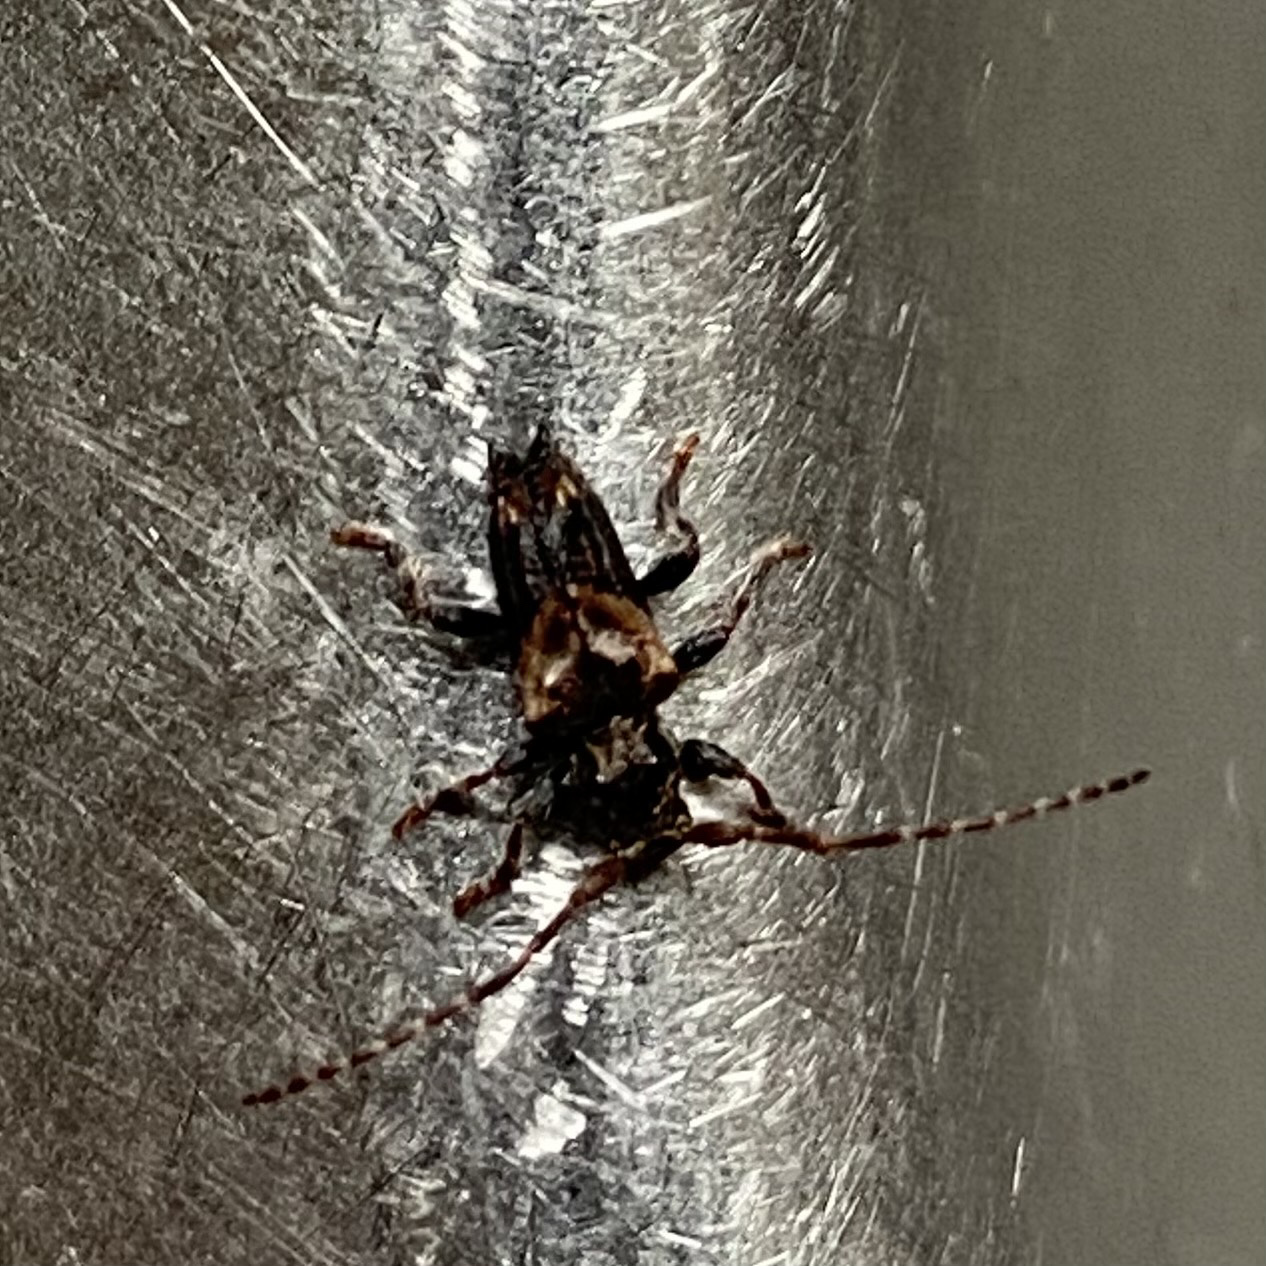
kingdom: Animalia
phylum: Arthropoda
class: Insecta
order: Coleoptera
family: Cerambycidae
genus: Pogonocherus
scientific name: Pogonocherus hispidus
